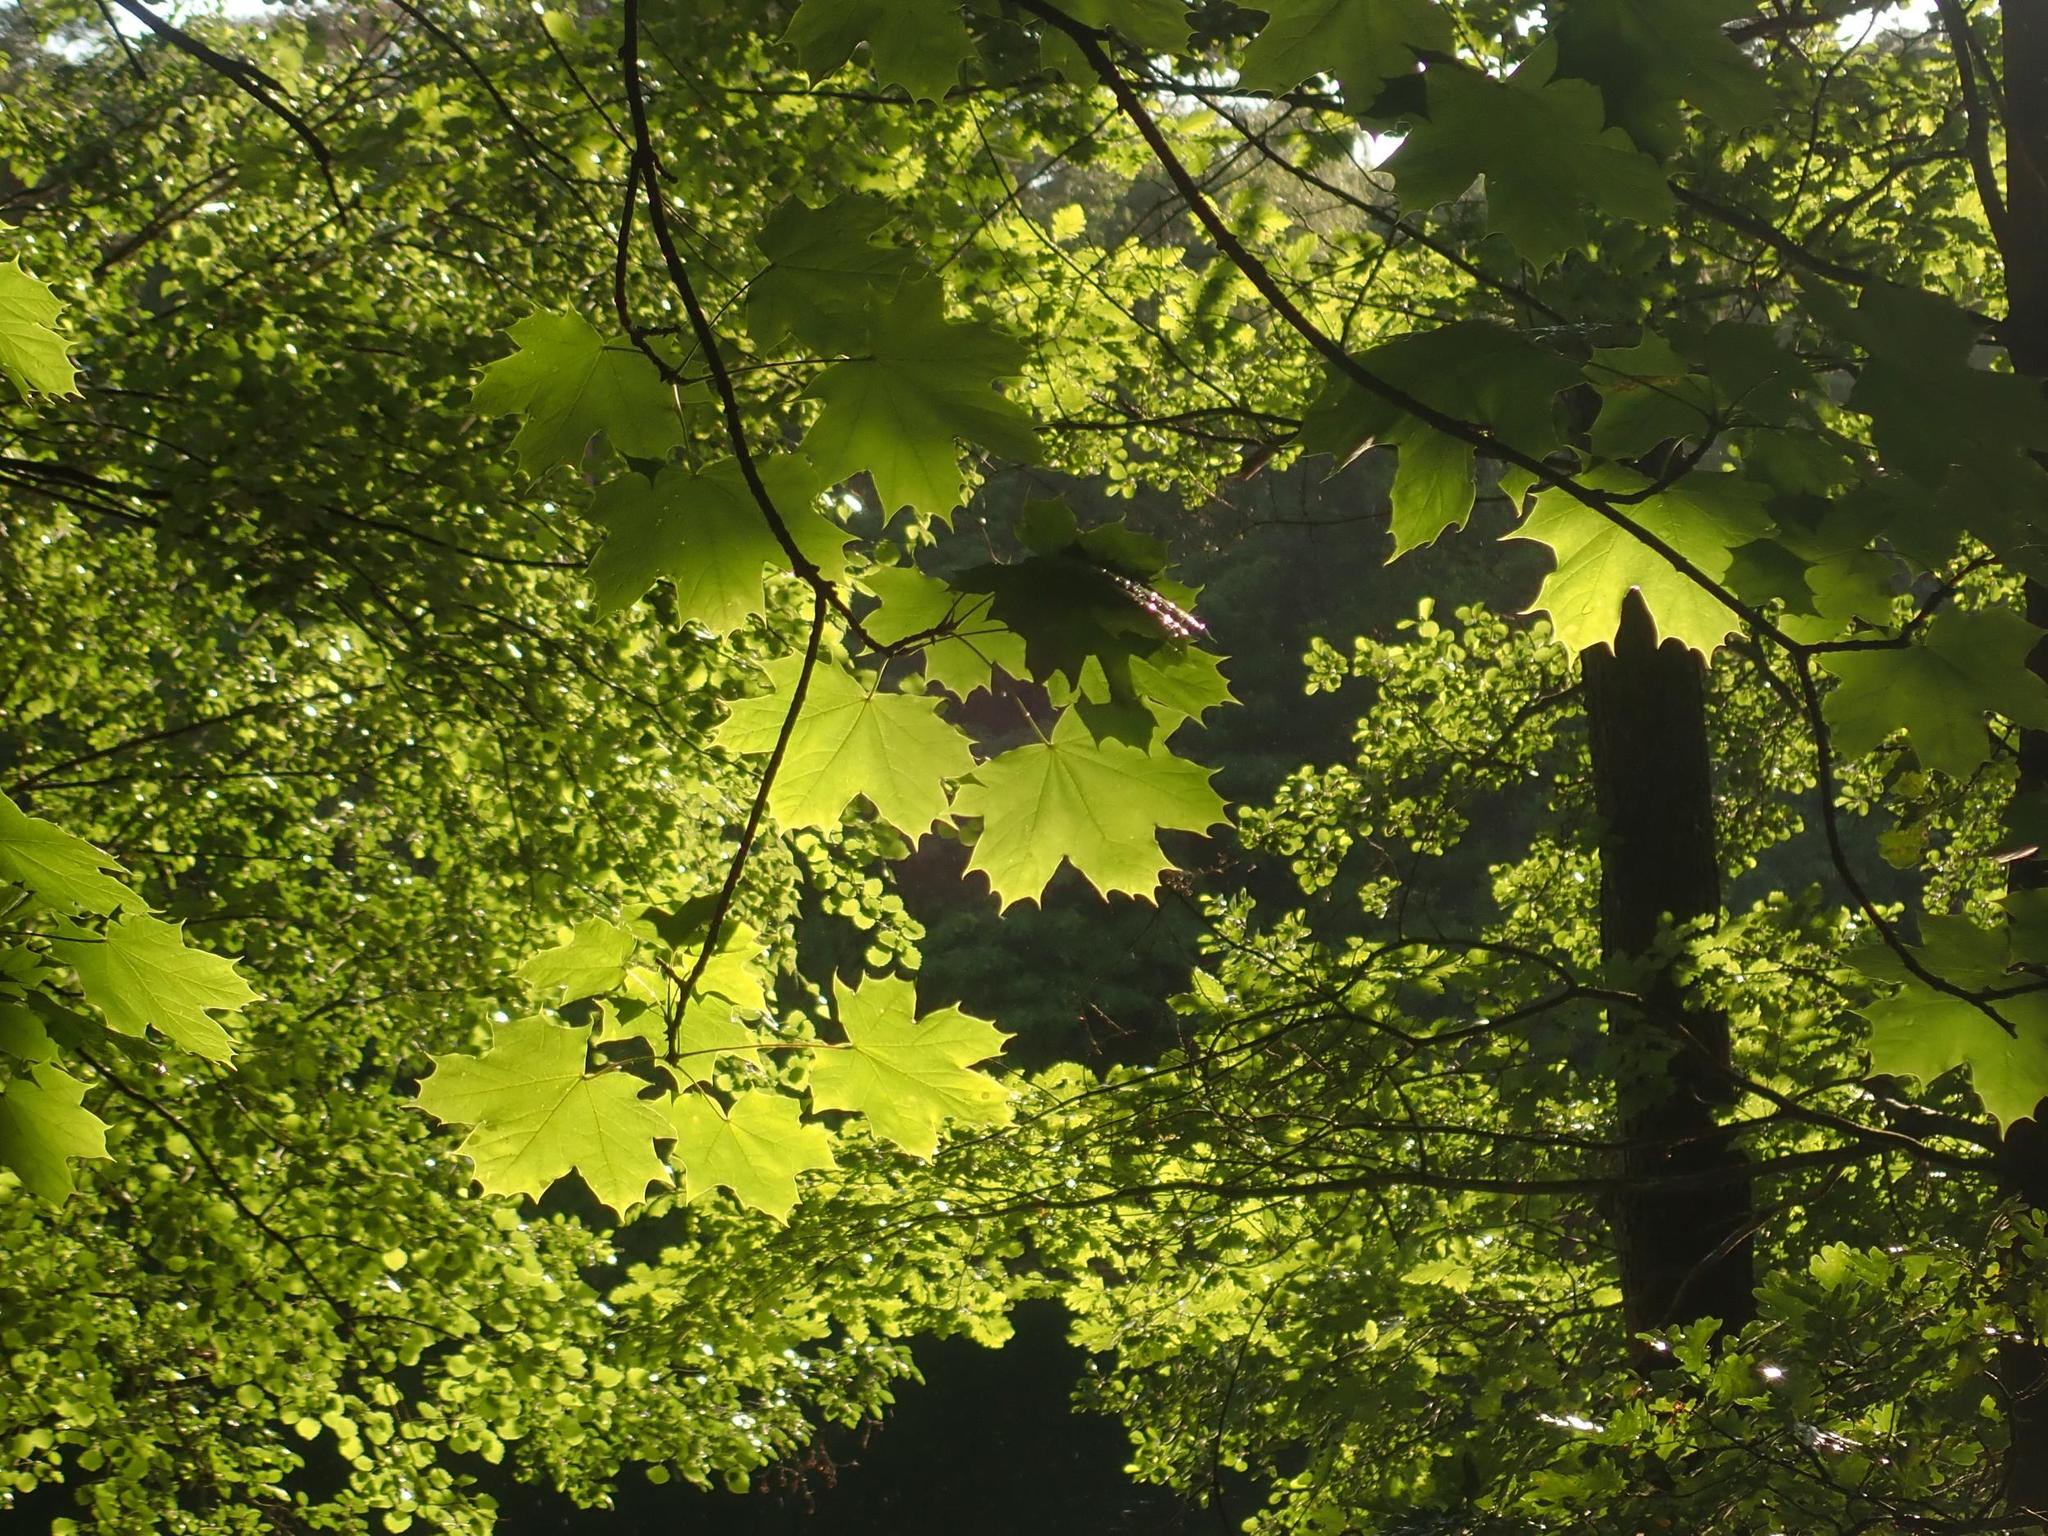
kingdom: Plantae
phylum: Tracheophyta
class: Magnoliopsida
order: Sapindales
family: Sapindaceae
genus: Acer
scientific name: Acer platanoides
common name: Norway maple
